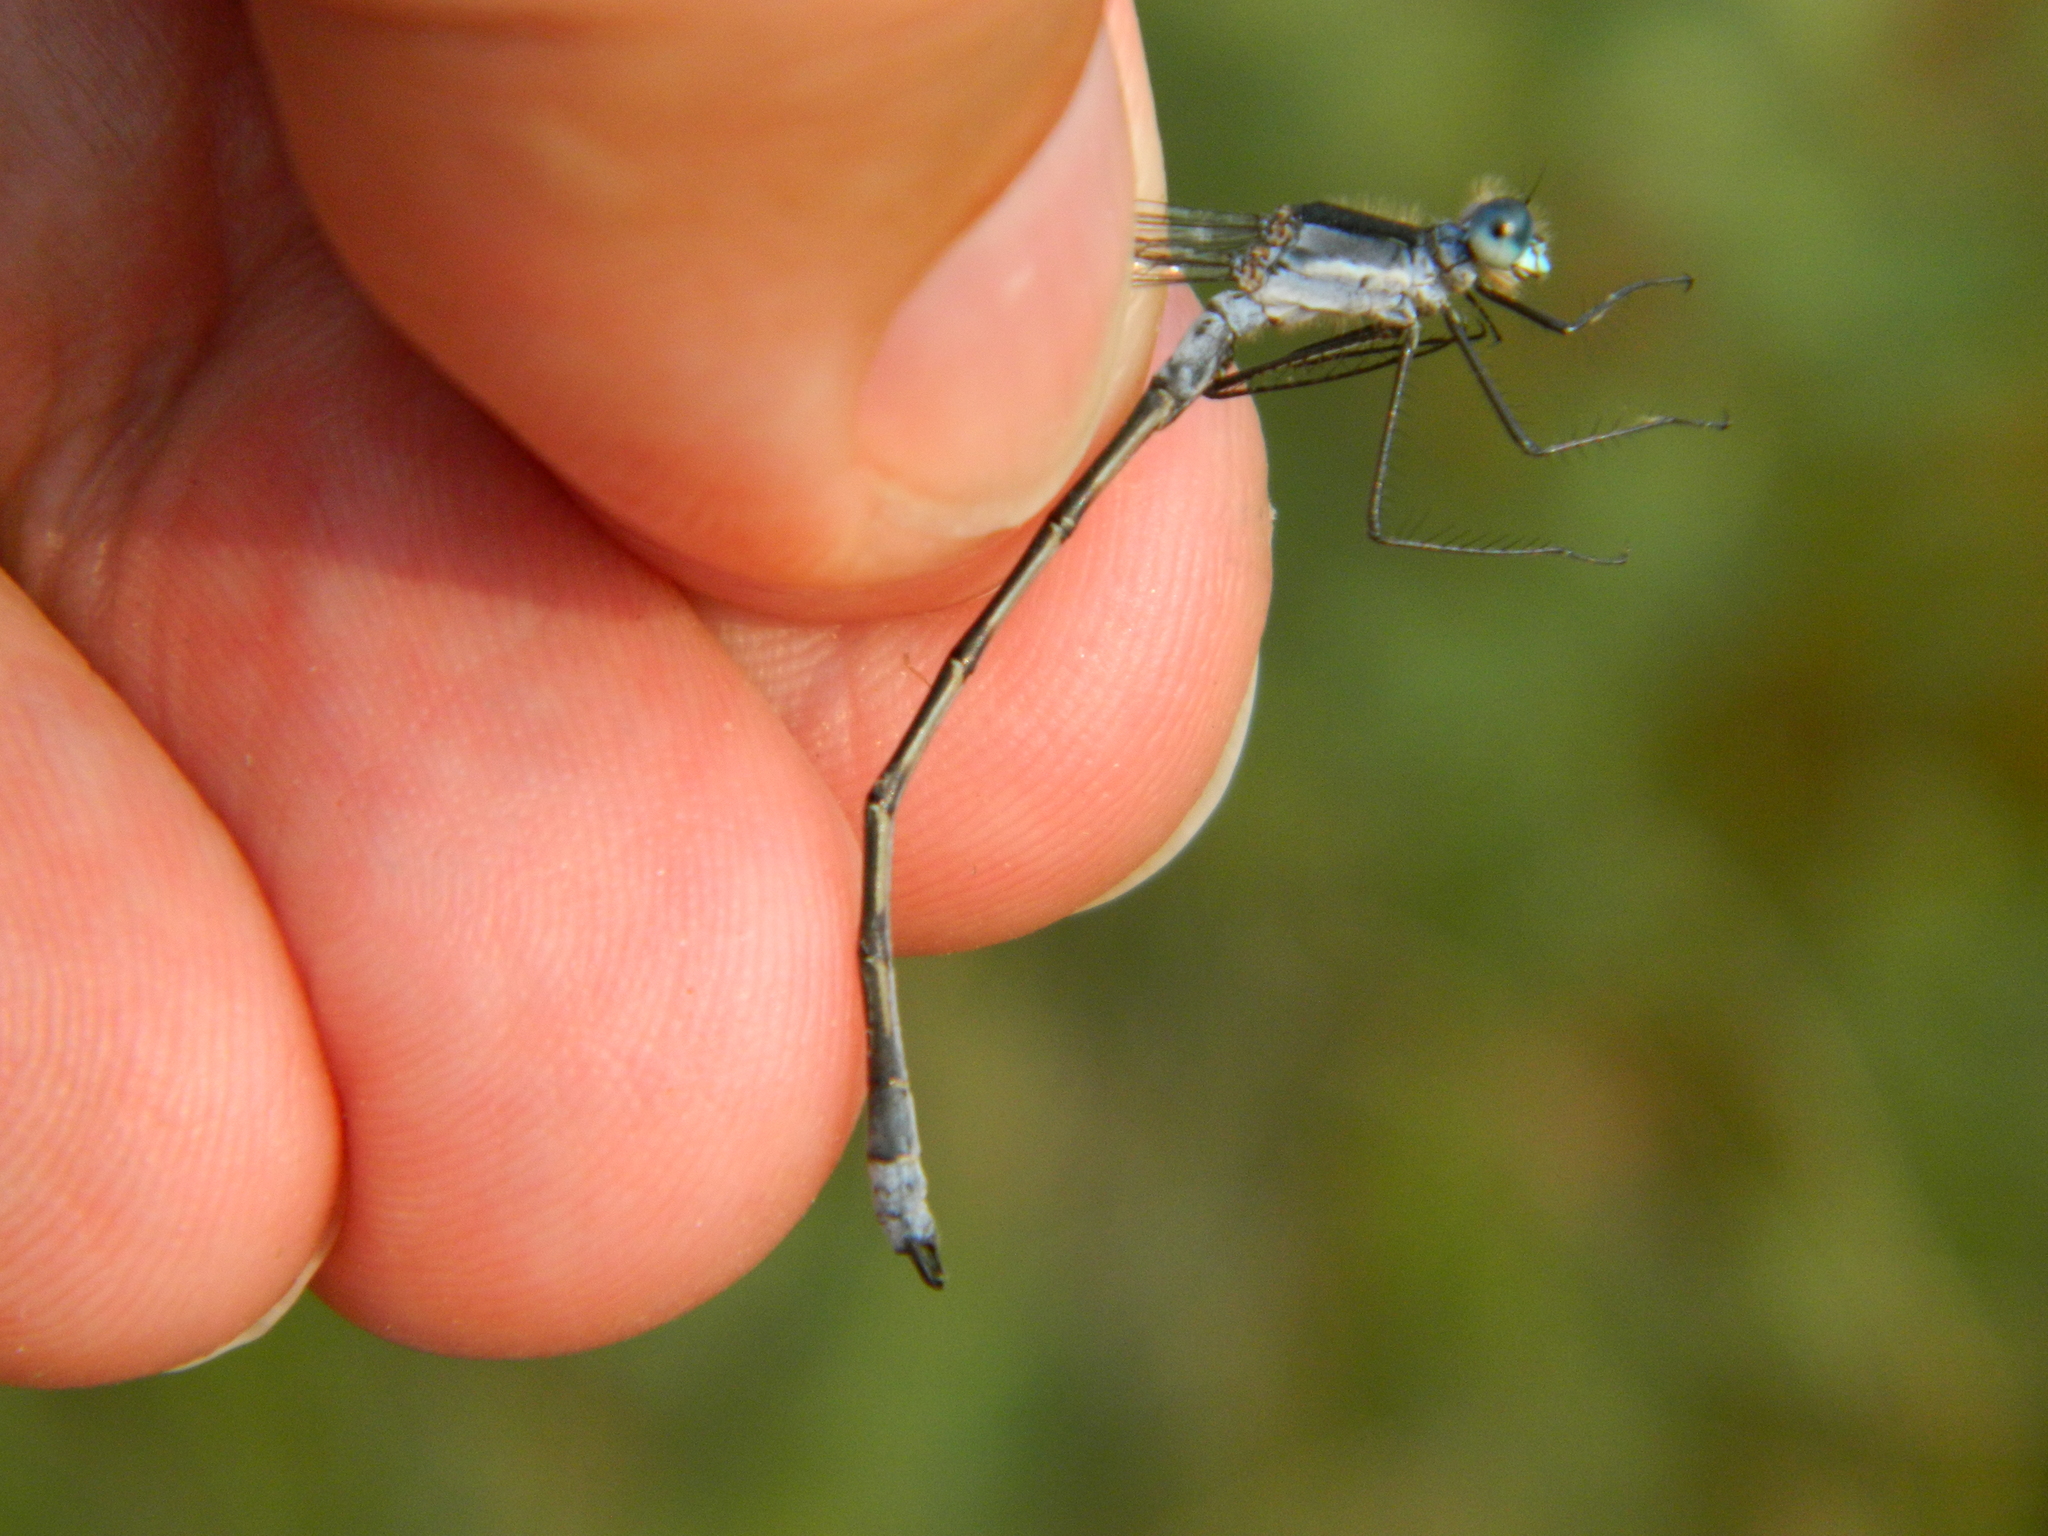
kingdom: Animalia
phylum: Arthropoda
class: Insecta
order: Odonata
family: Lestidae
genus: Lestes
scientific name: Lestes disjunctus
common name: Northern spreadwing
